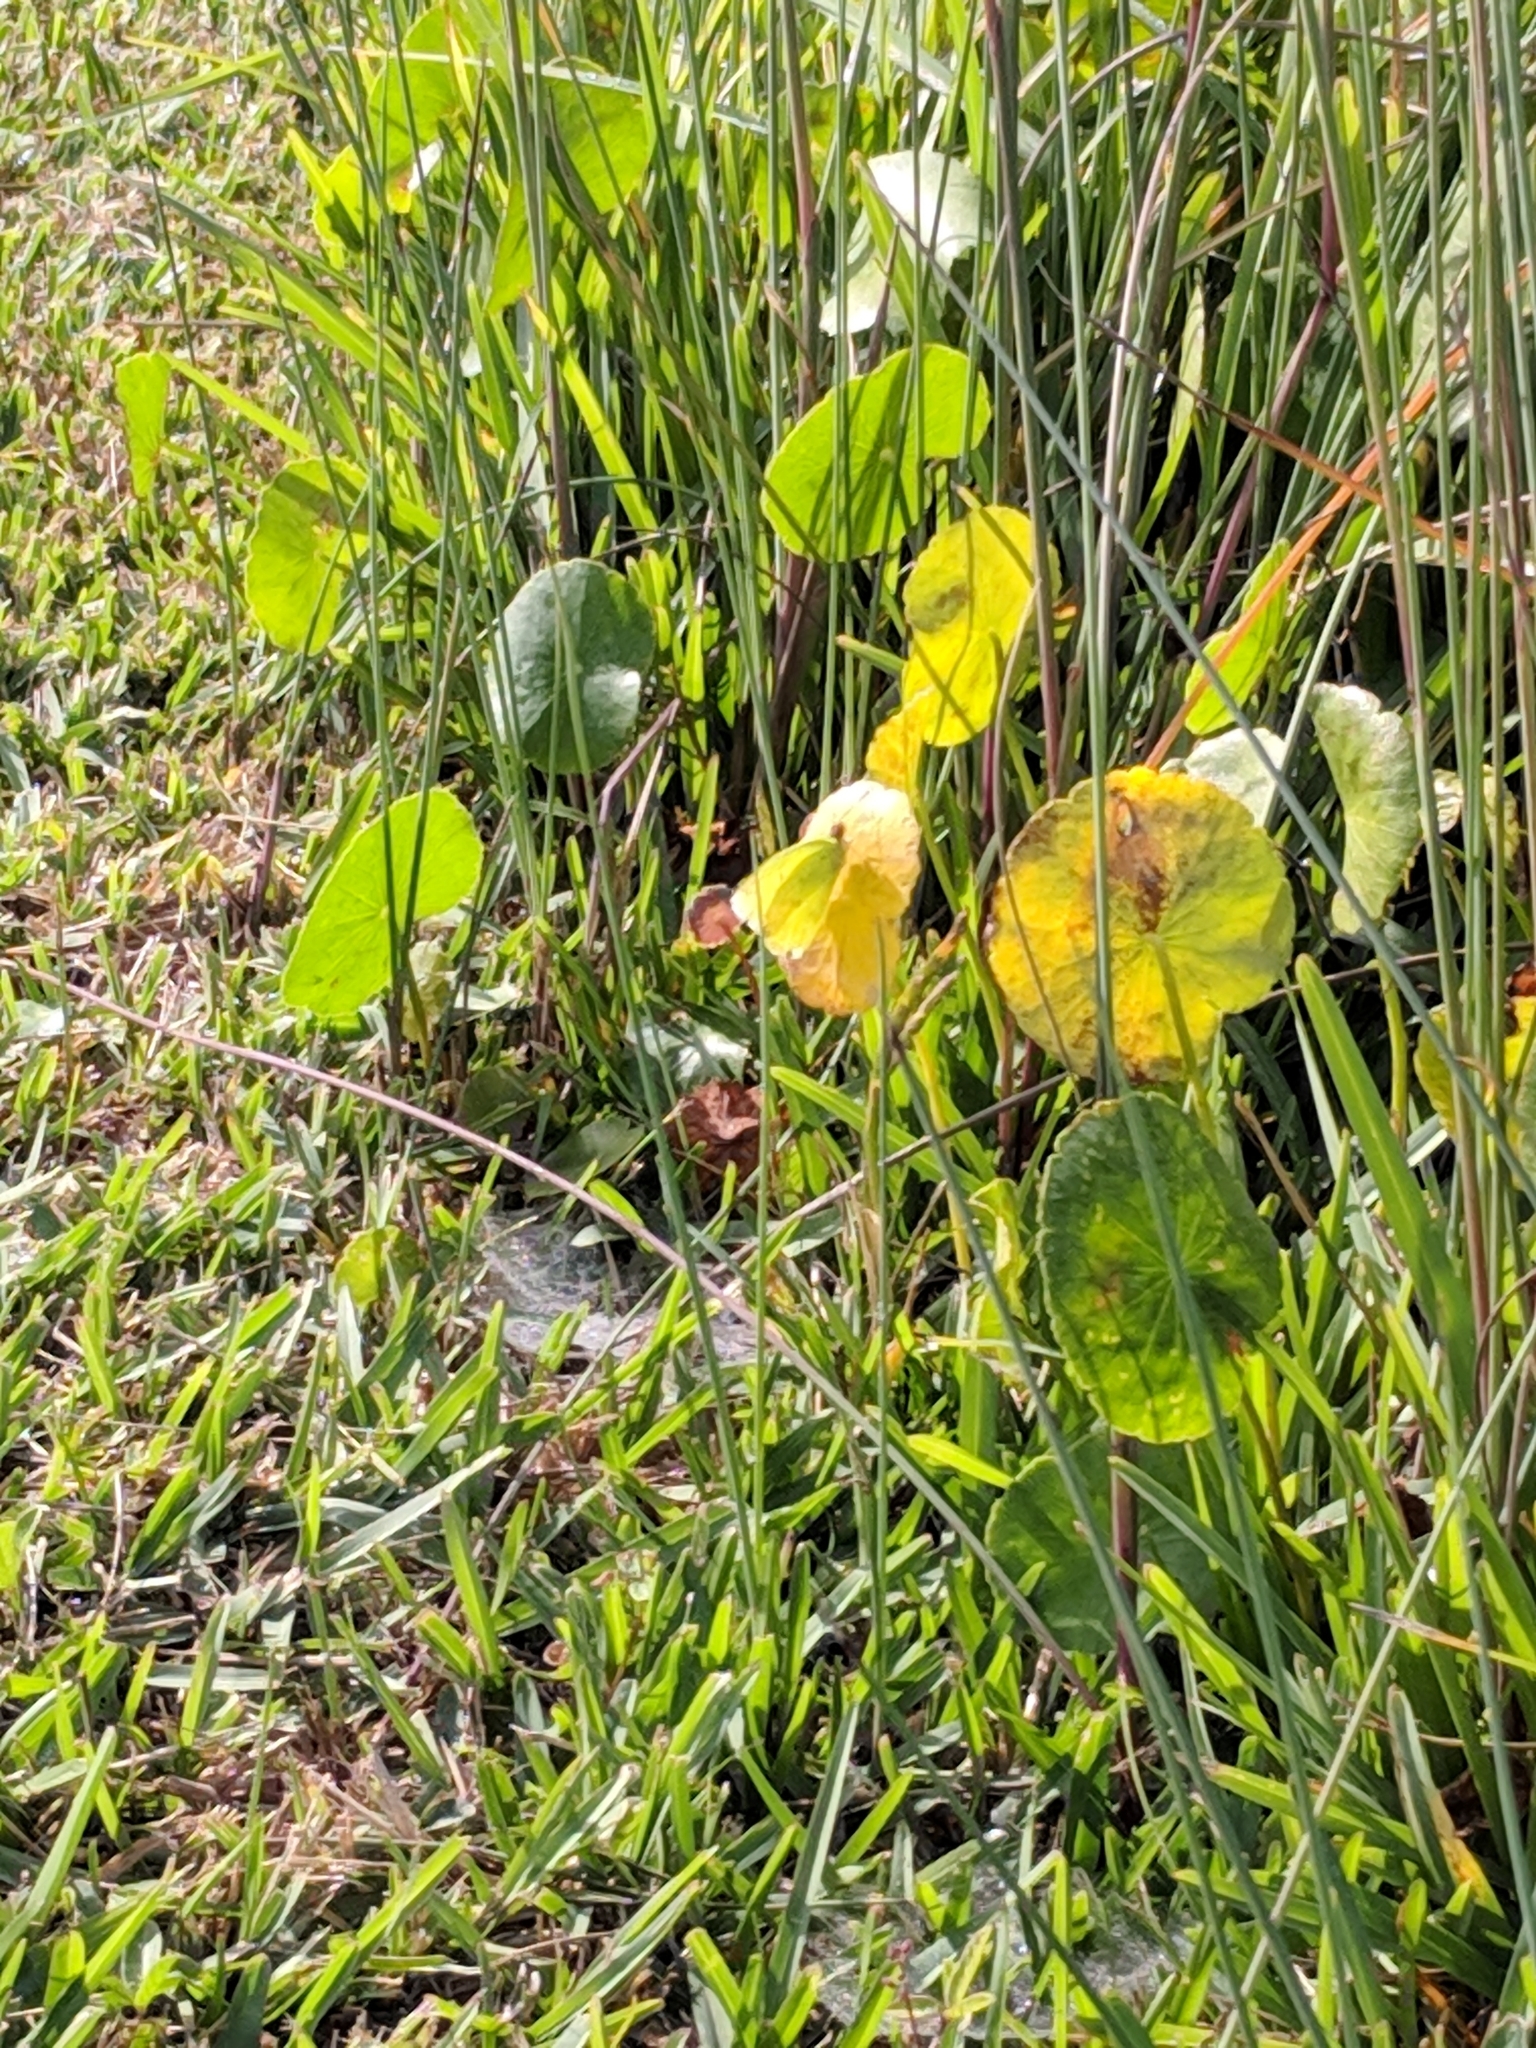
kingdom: Animalia
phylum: Arthropoda
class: Insecta
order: Lepidoptera
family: Pieridae
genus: Phoebis
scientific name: Phoebis sennae
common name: Cloudless sulphur
